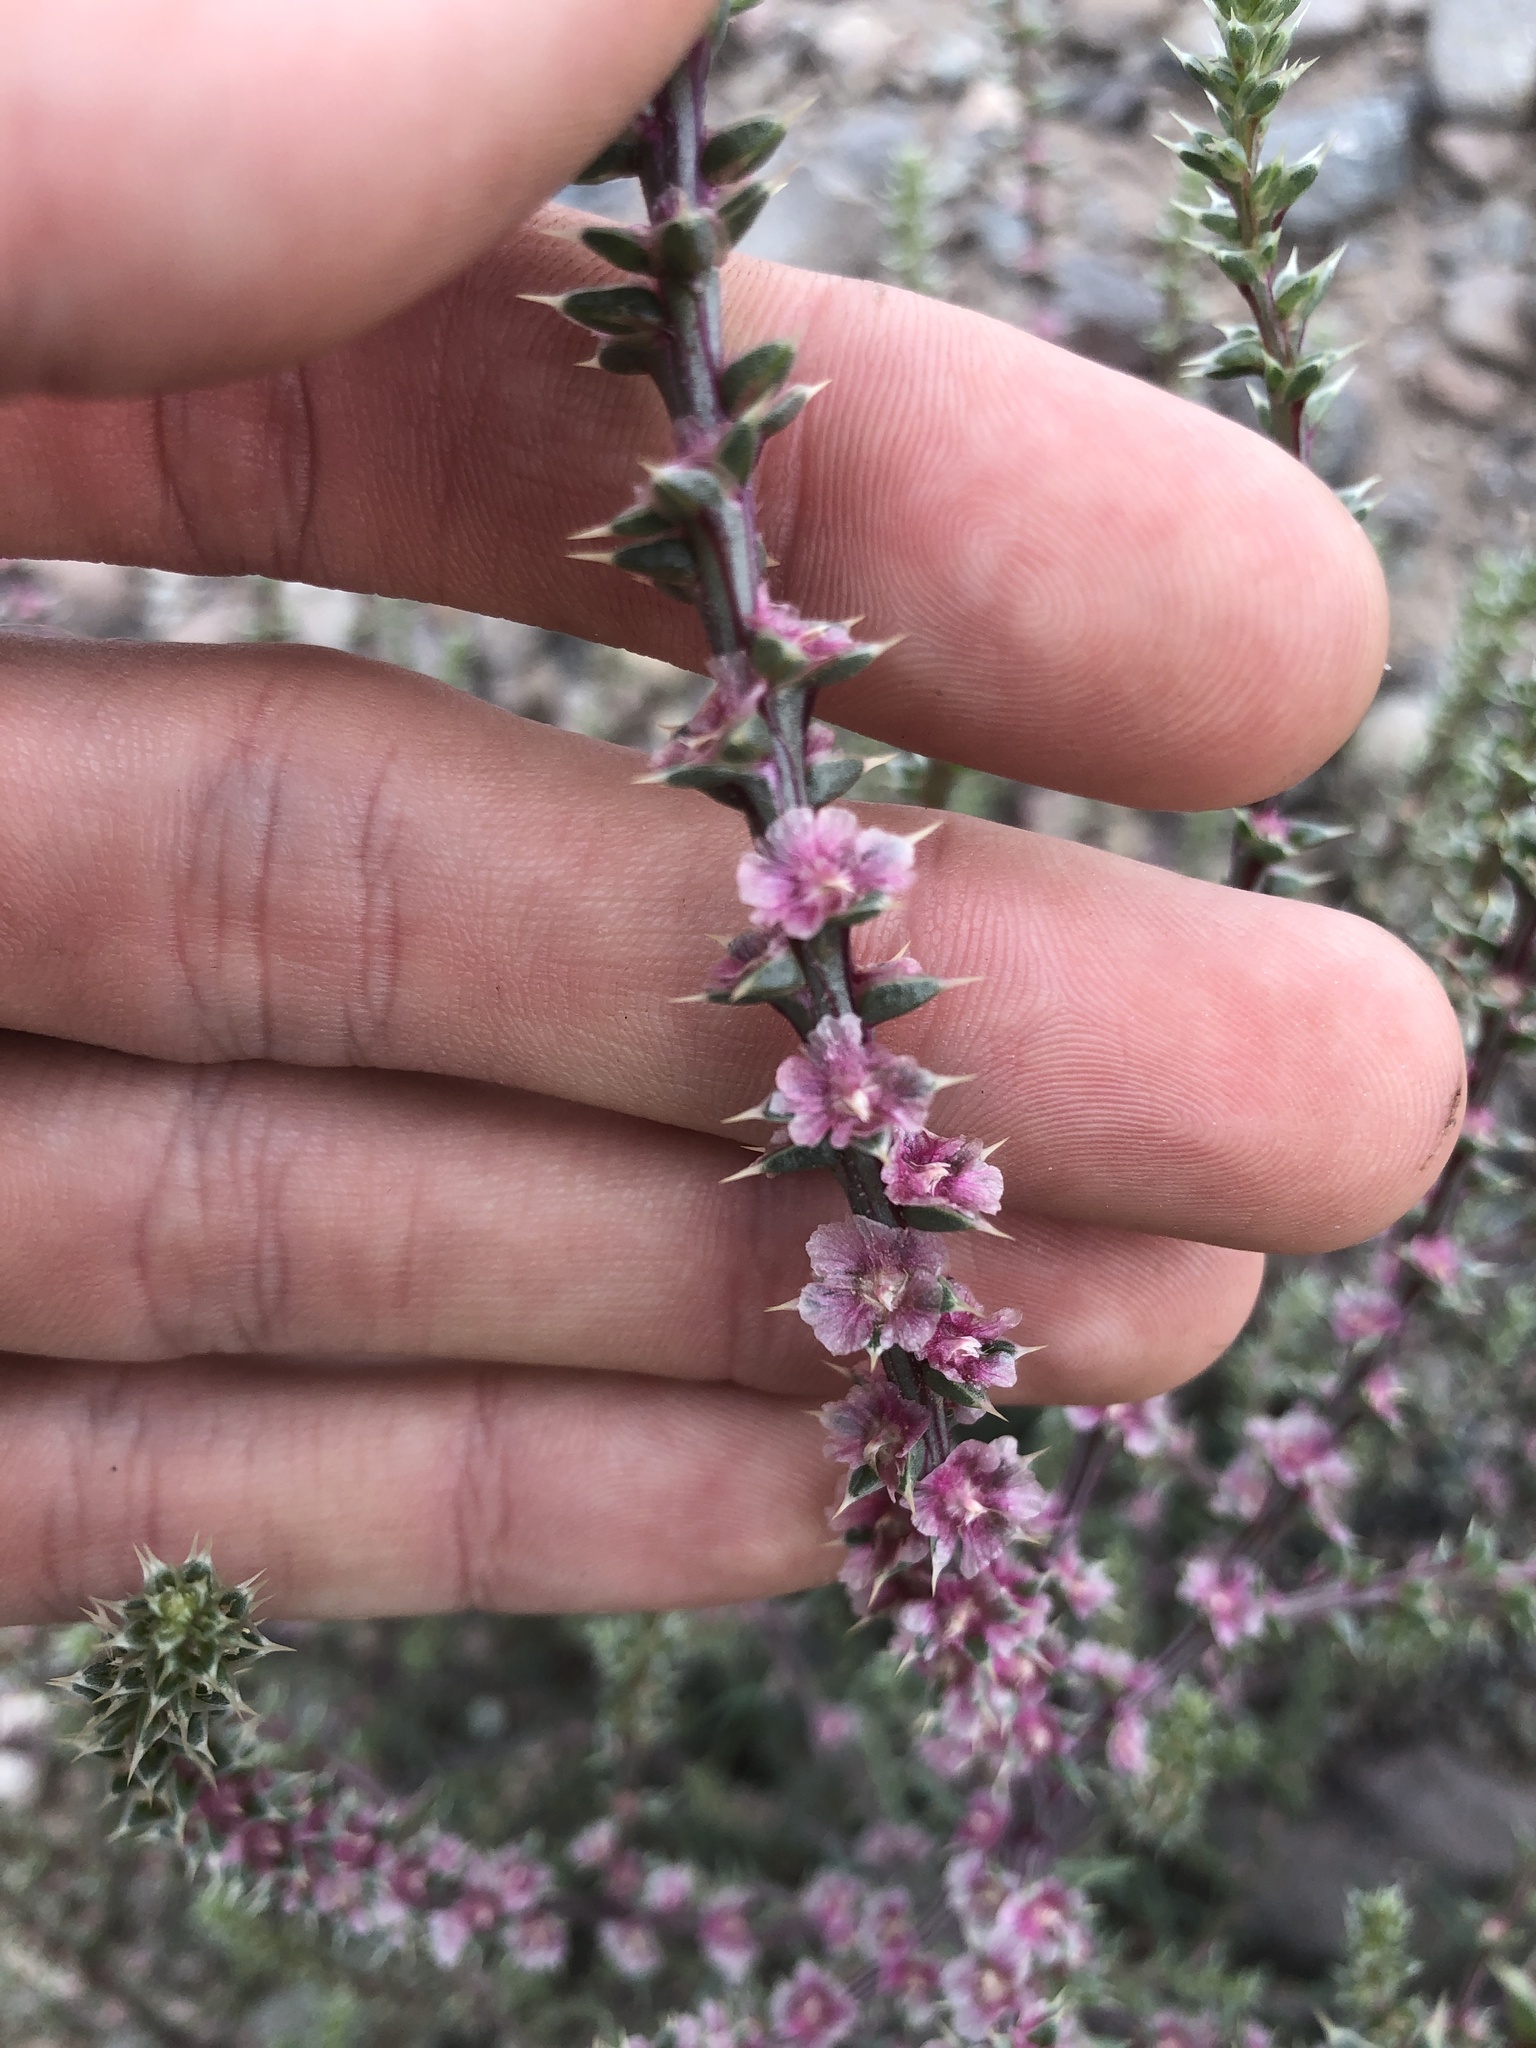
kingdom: Plantae
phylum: Tracheophyta
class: Magnoliopsida
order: Caryophyllales
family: Amaranthaceae
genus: Salsola
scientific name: Salsola tragus
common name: Prickly russian thistle
